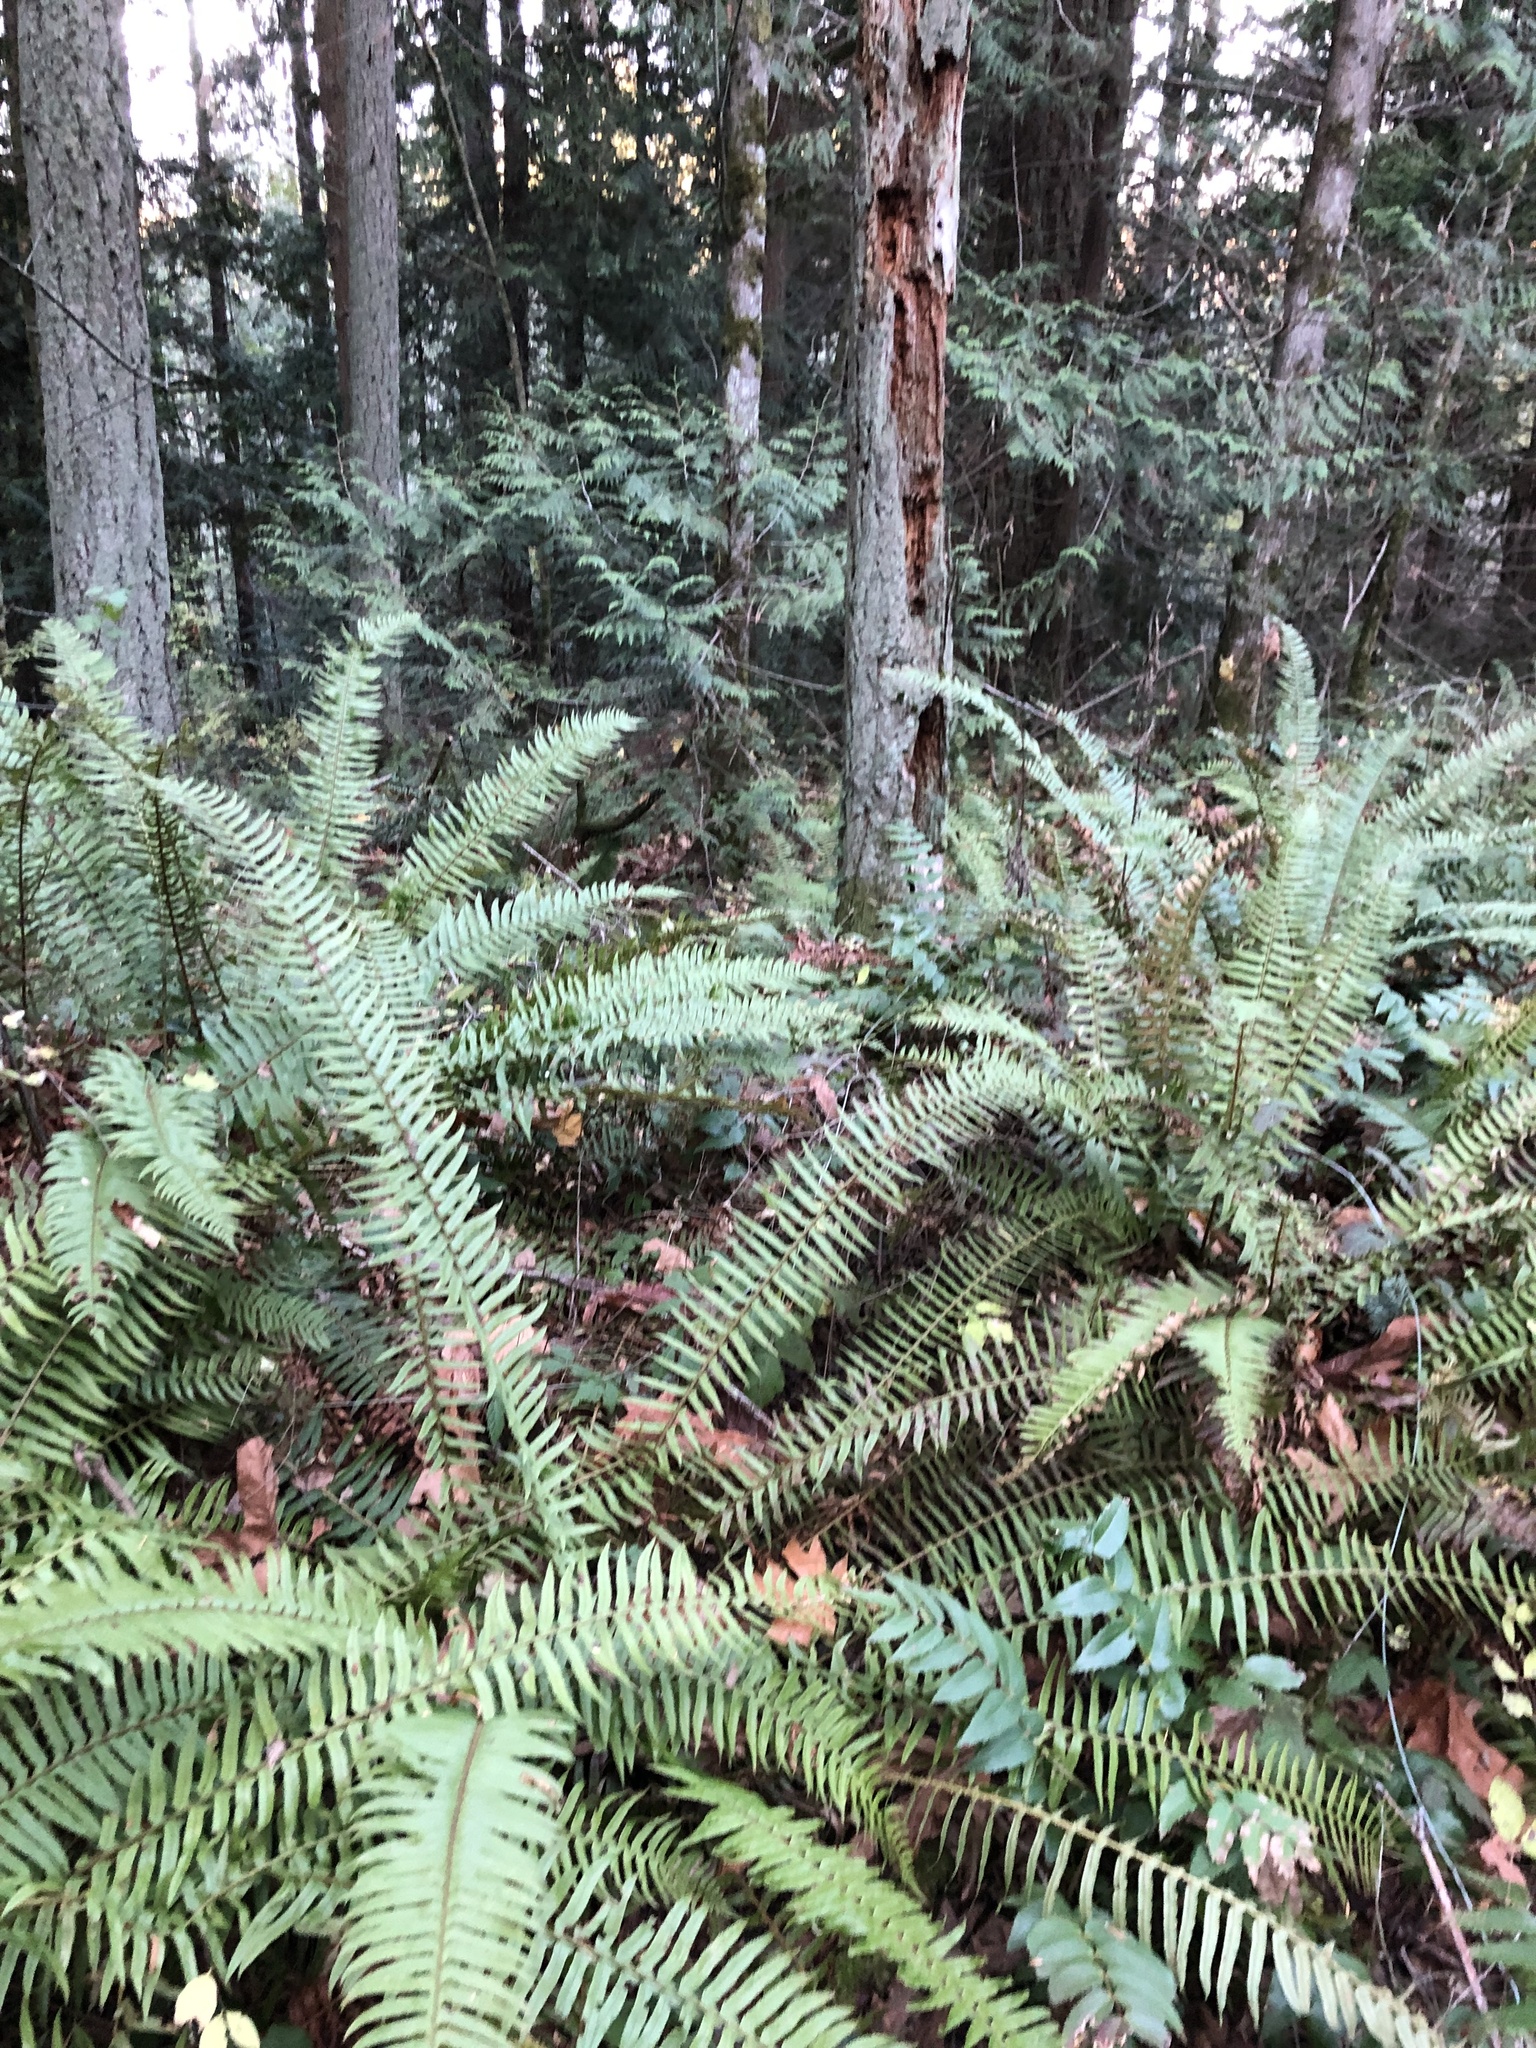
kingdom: Plantae
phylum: Tracheophyta
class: Polypodiopsida
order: Polypodiales
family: Dryopteridaceae
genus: Polystichum
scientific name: Polystichum munitum
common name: Western sword-fern
